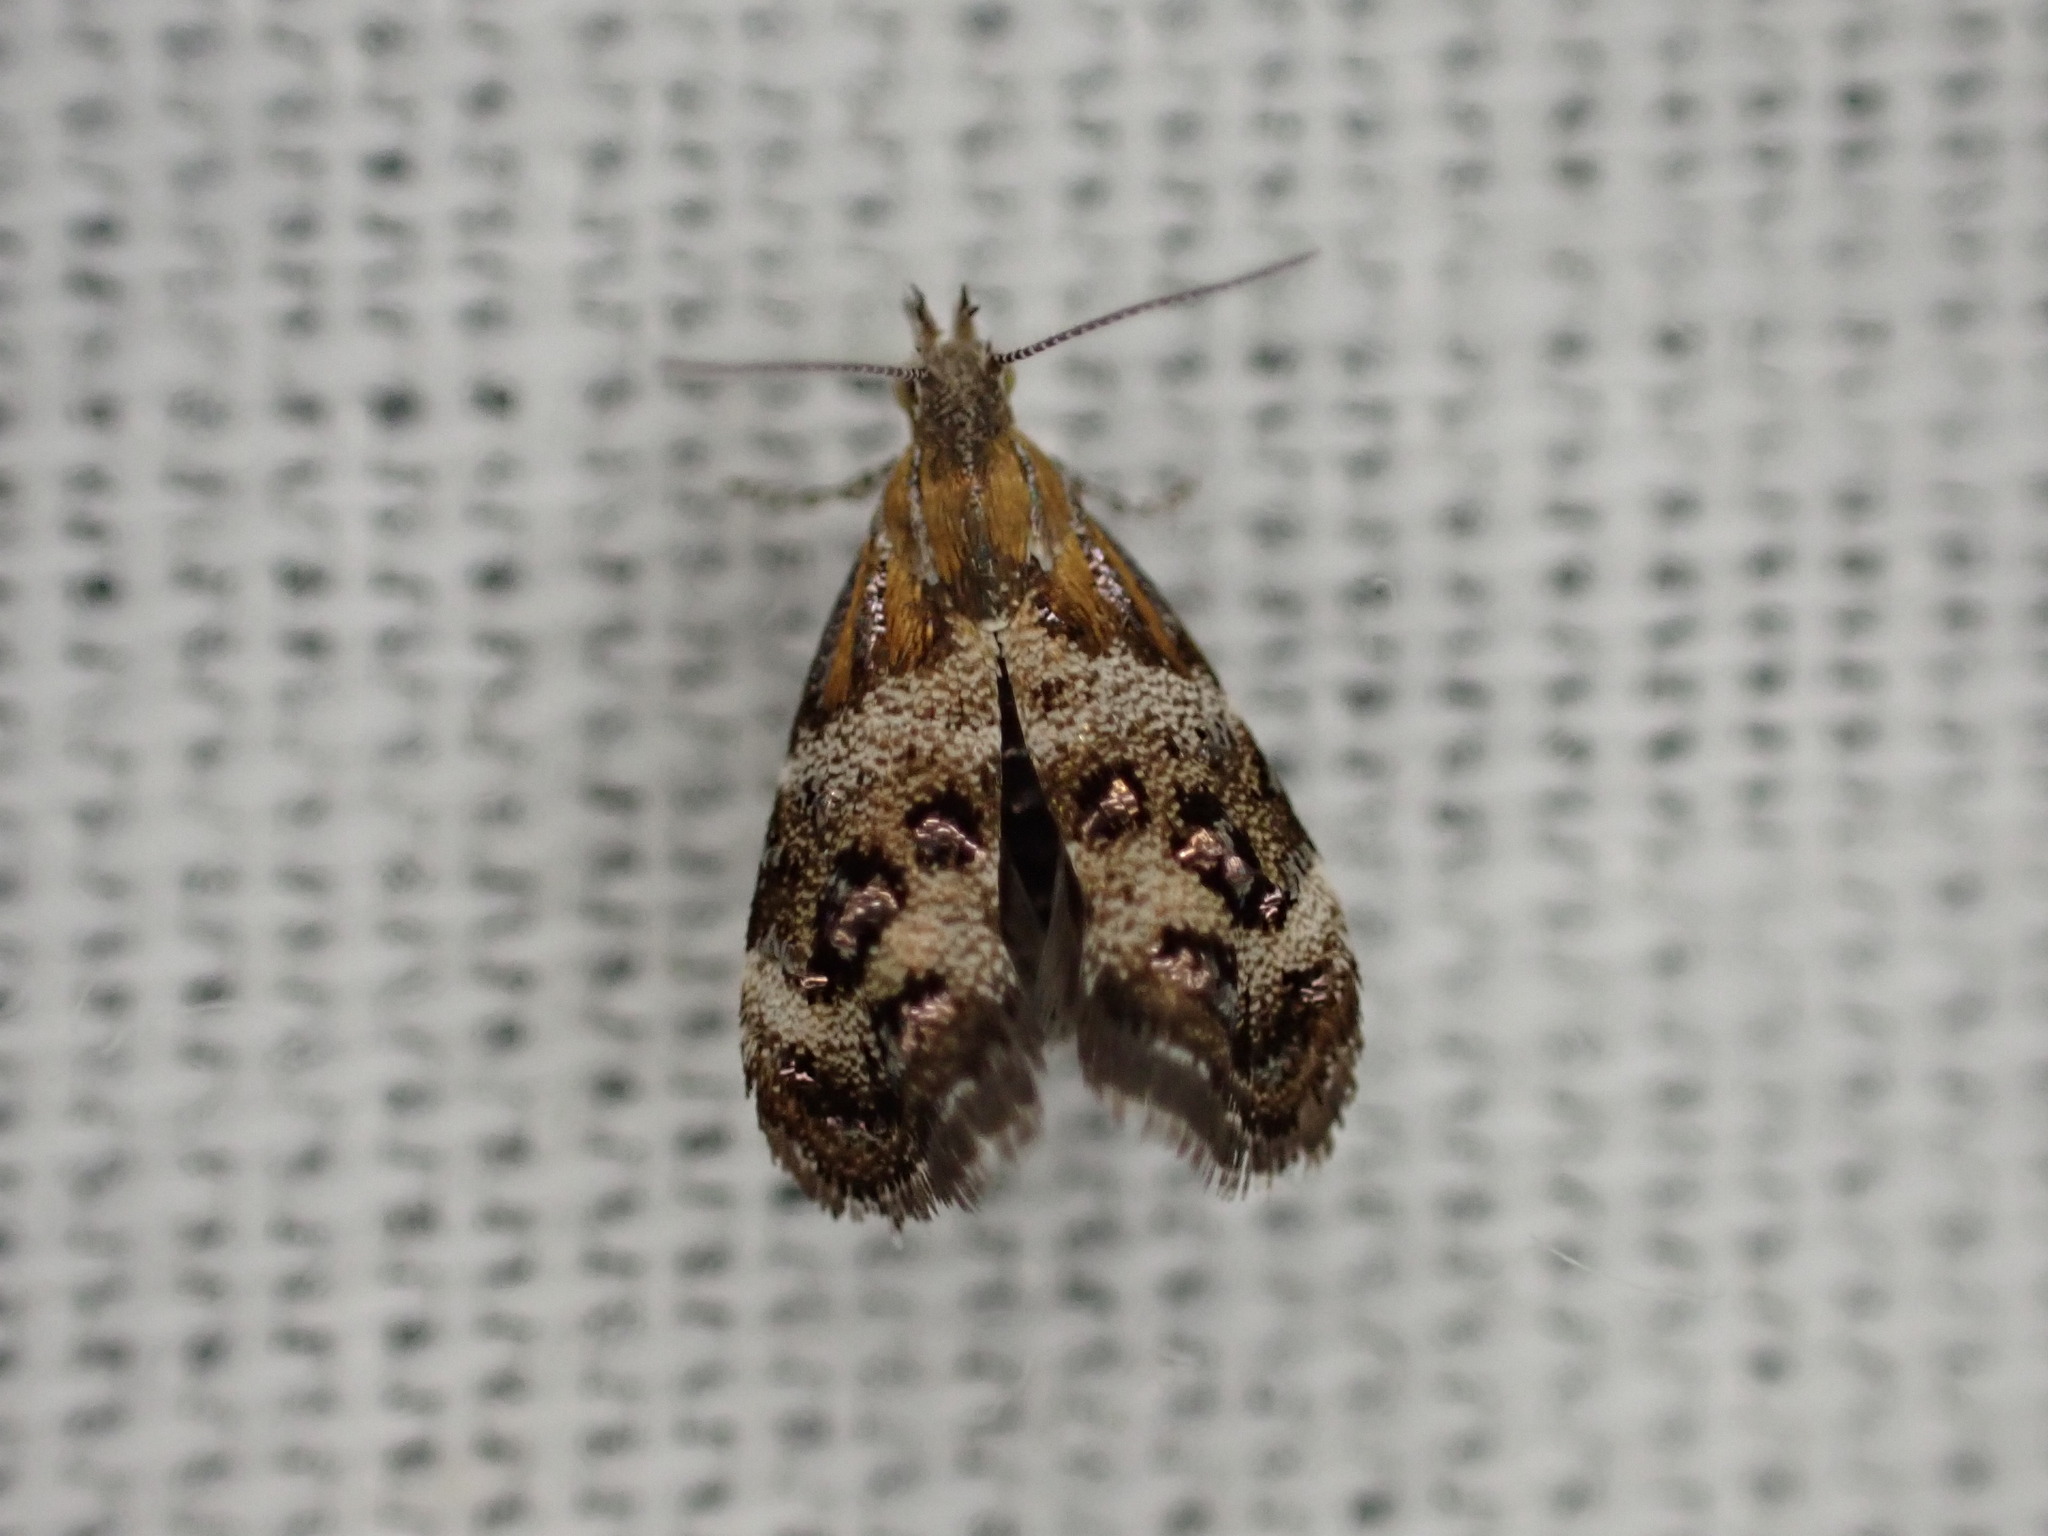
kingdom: Animalia
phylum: Arthropoda
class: Insecta
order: Lepidoptera
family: Choreutidae
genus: Tebenna
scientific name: Tebenna micalis
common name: Vagrant twitcher
